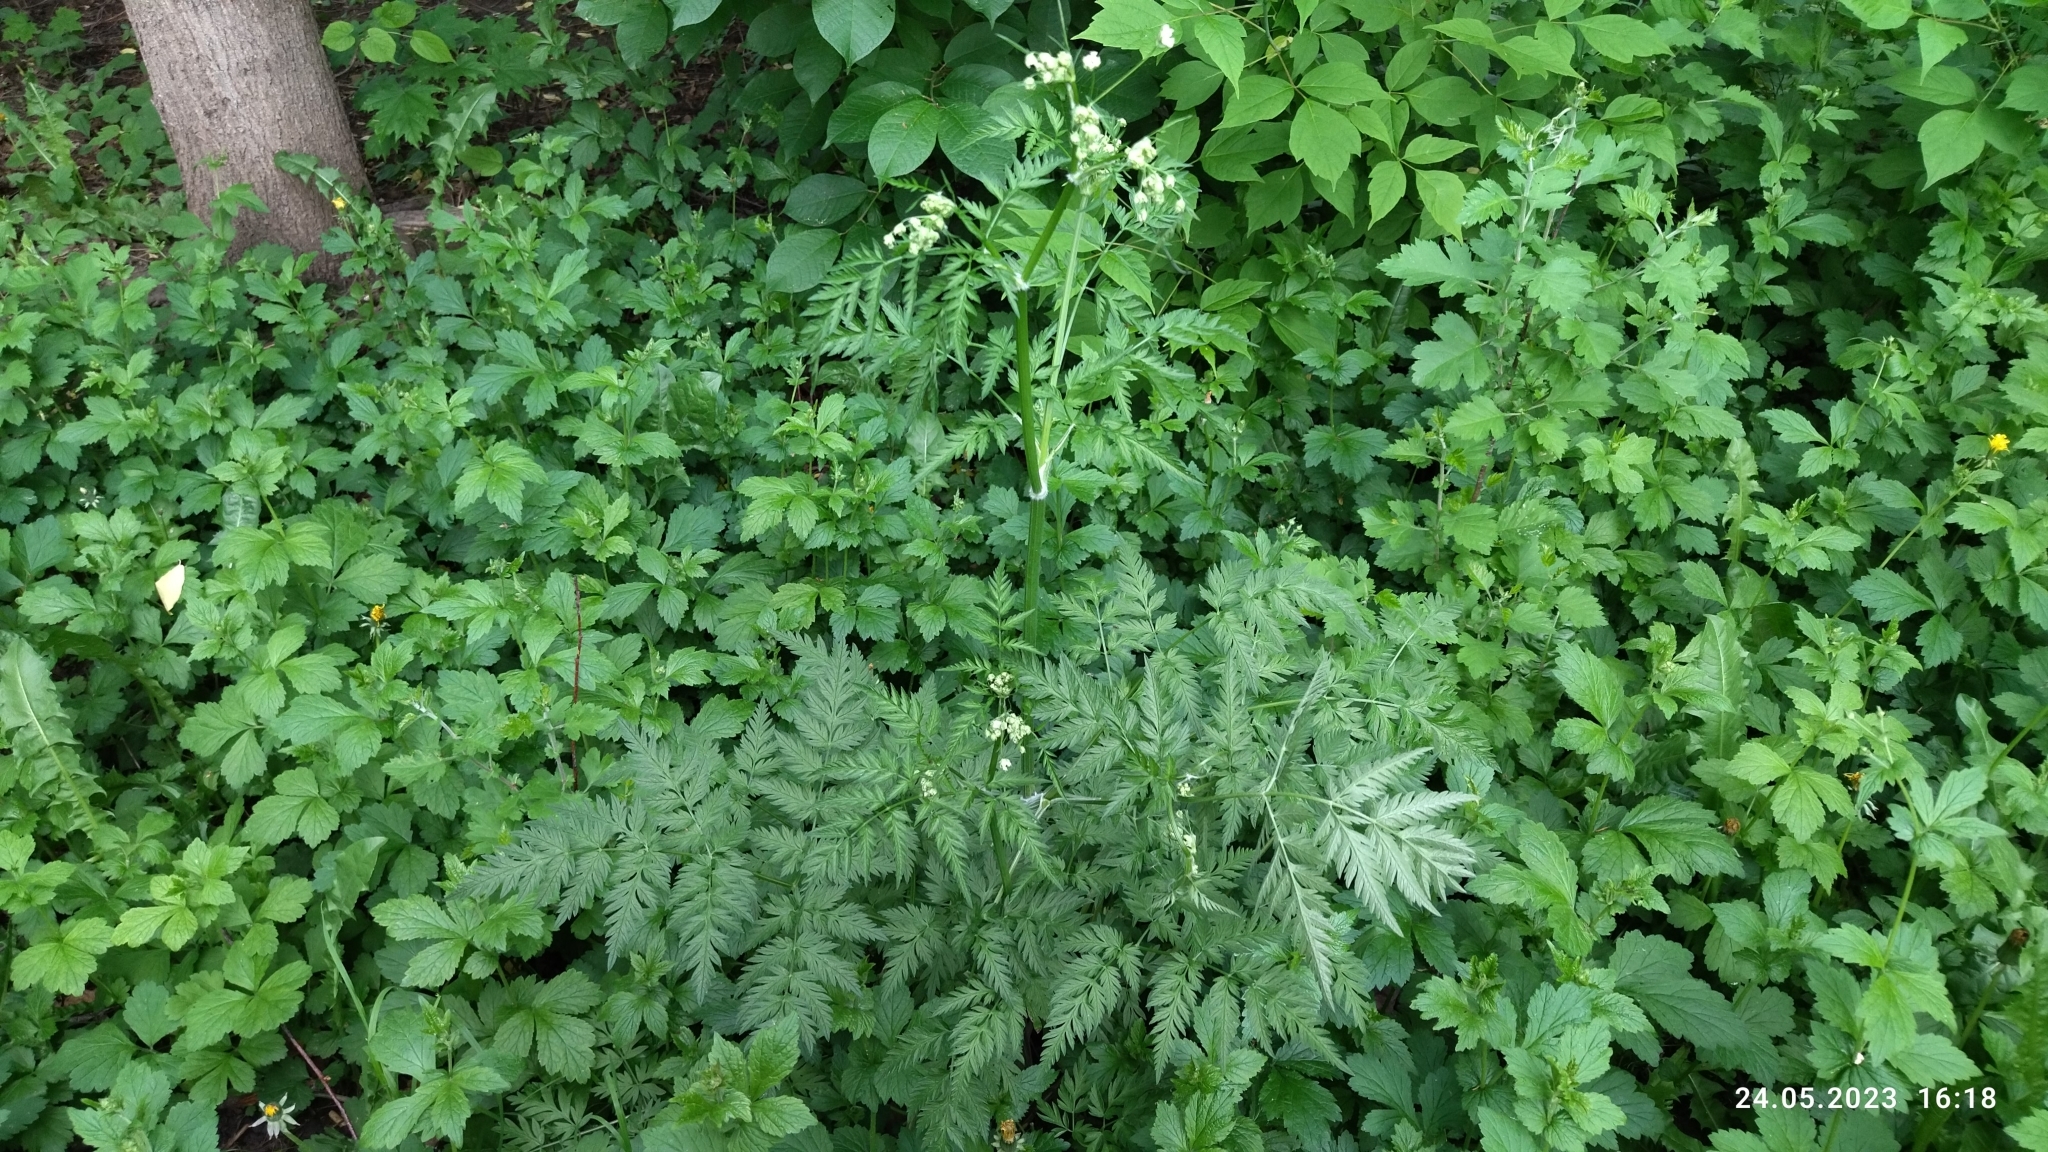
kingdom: Plantae
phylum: Tracheophyta
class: Magnoliopsida
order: Apiales
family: Apiaceae
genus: Anthriscus
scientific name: Anthriscus sylvestris
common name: Cow parsley
